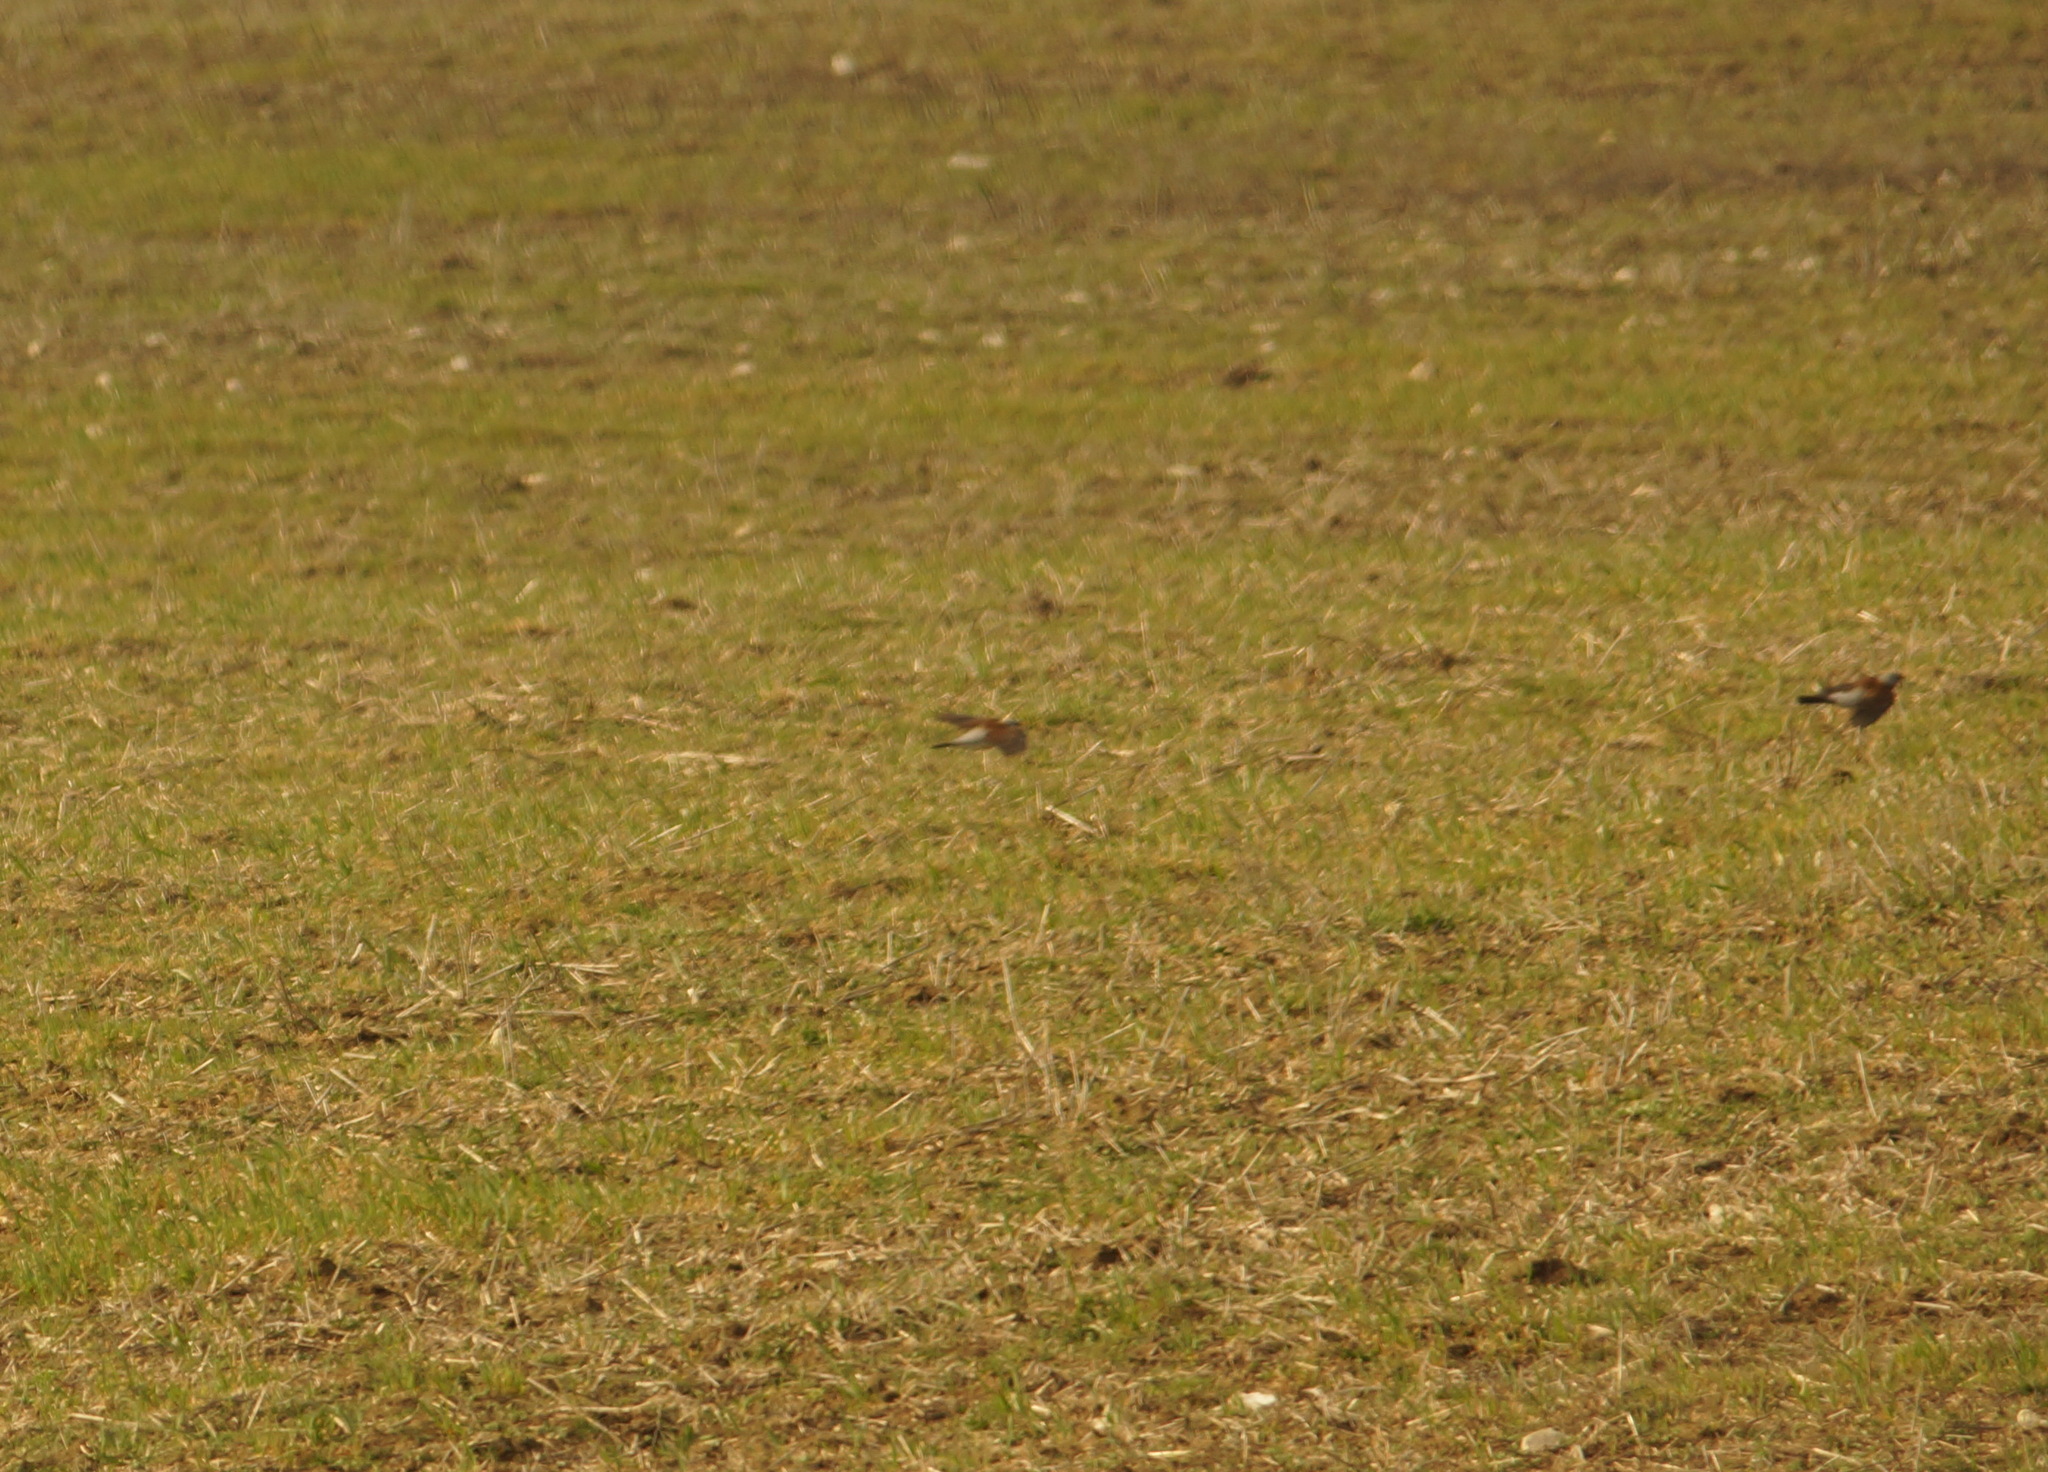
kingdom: Animalia
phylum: Chordata
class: Aves
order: Passeriformes
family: Turdidae
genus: Turdus
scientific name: Turdus pilaris
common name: Fieldfare
